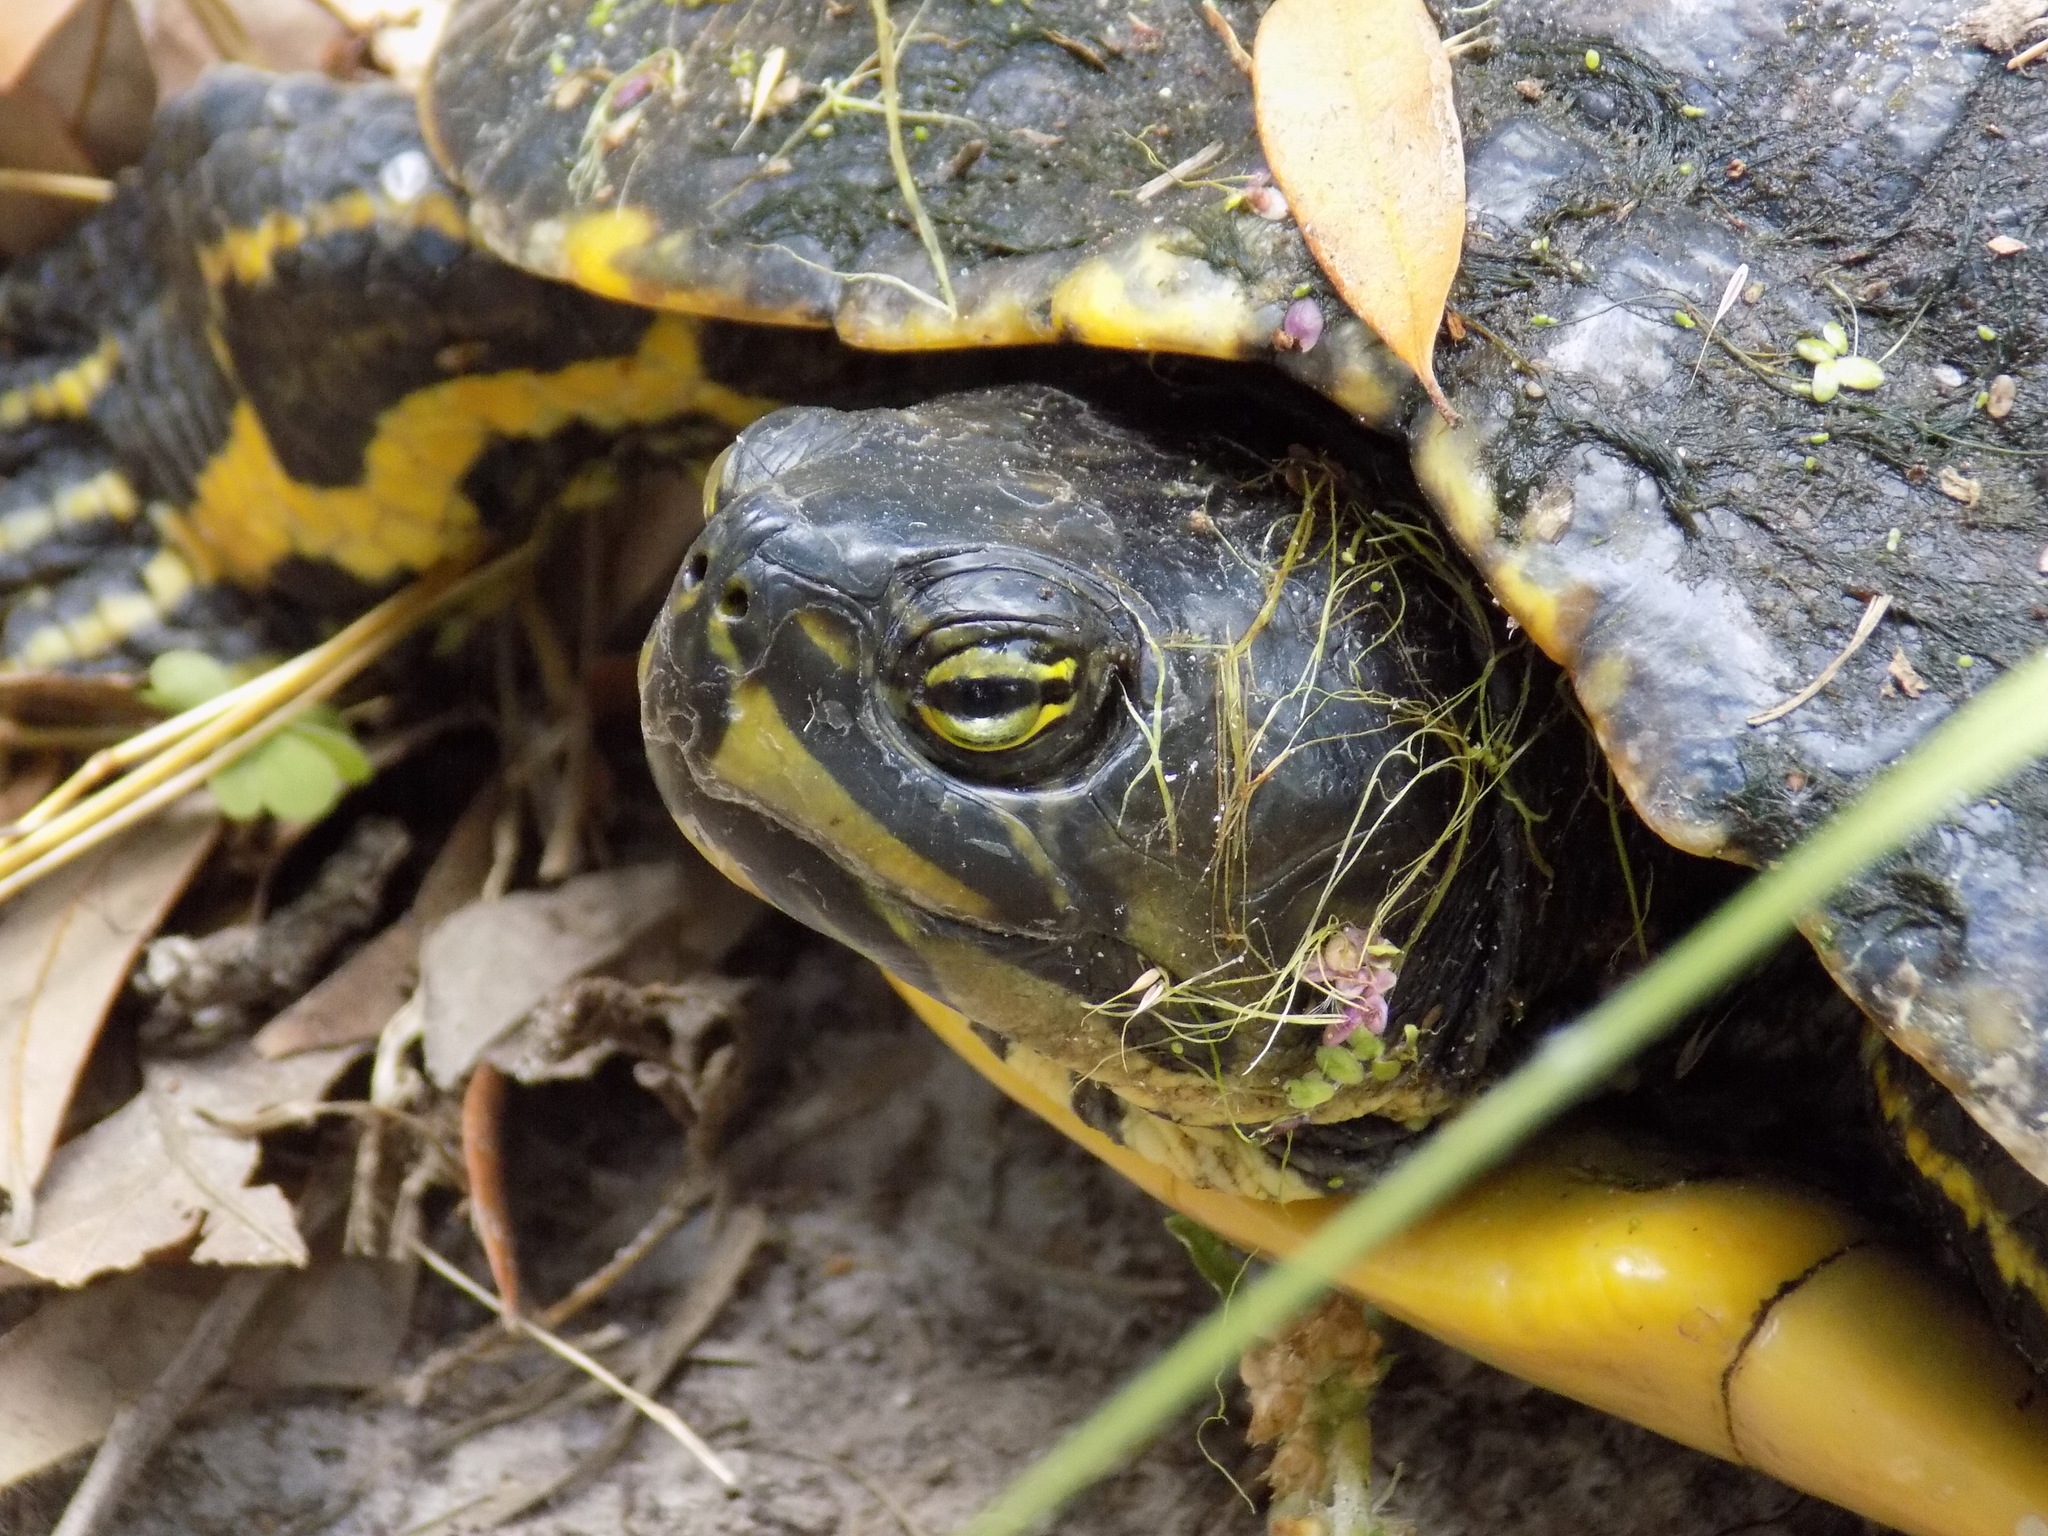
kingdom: Animalia
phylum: Chordata
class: Testudines
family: Emydidae
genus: Trachemys
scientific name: Trachemys scripta
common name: Slider
